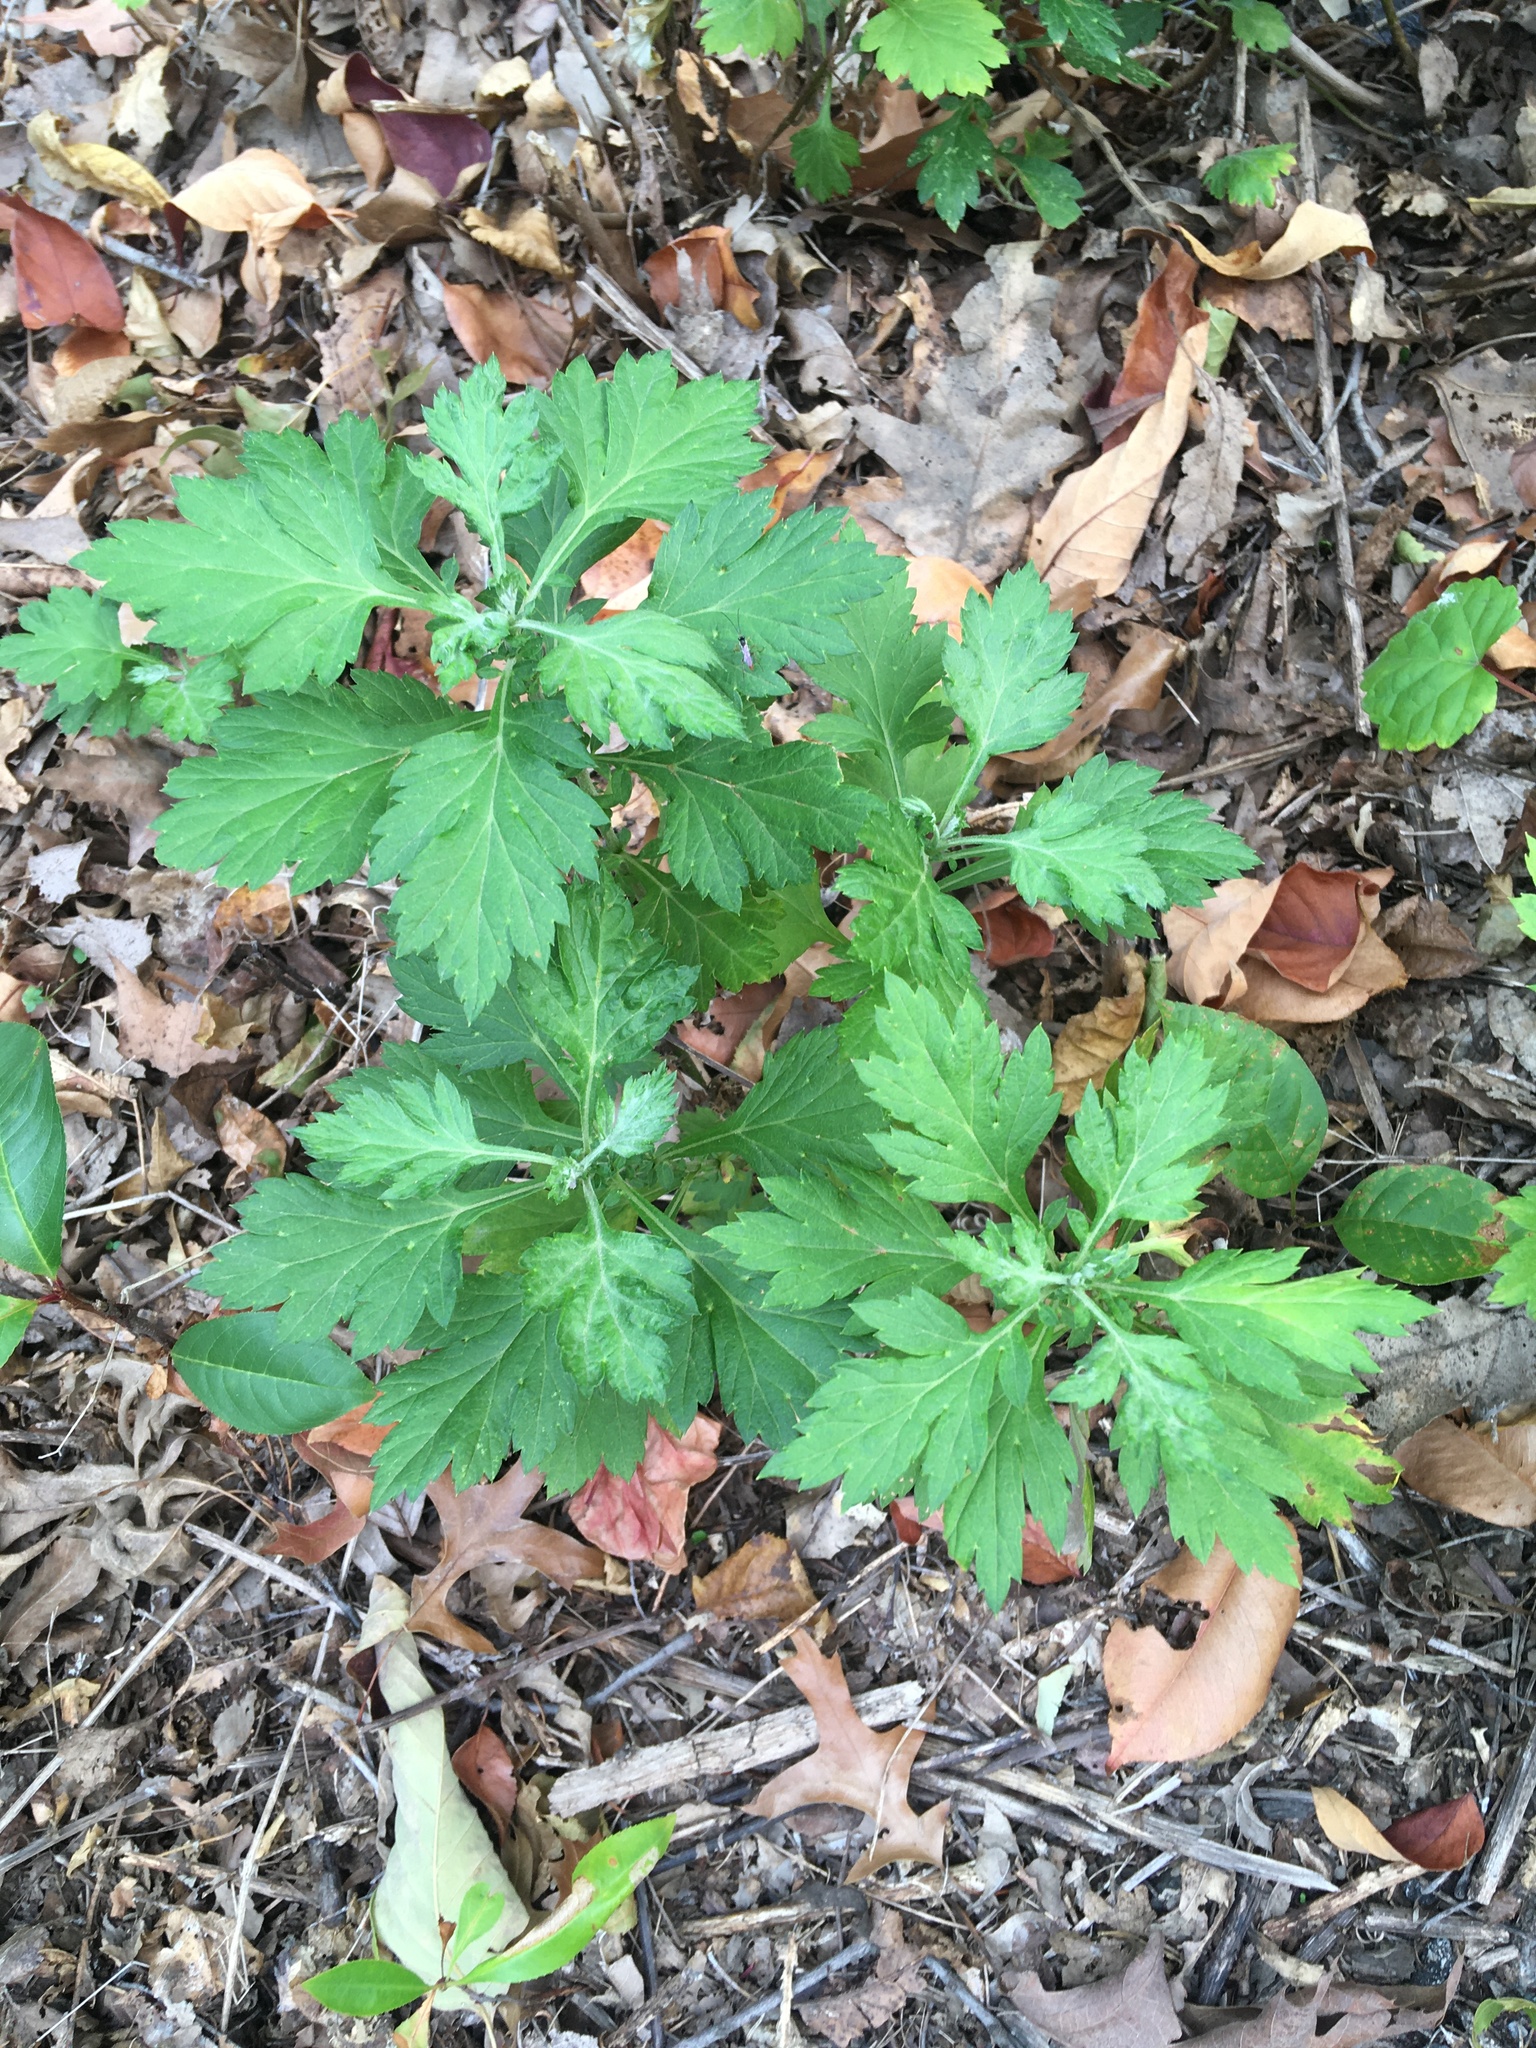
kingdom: Plantae
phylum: Tracheophyta
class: Magnoliopsida
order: Asterales
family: Asteraceae
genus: Artemisia
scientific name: Artemisia vulgaris
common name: Mugwort
